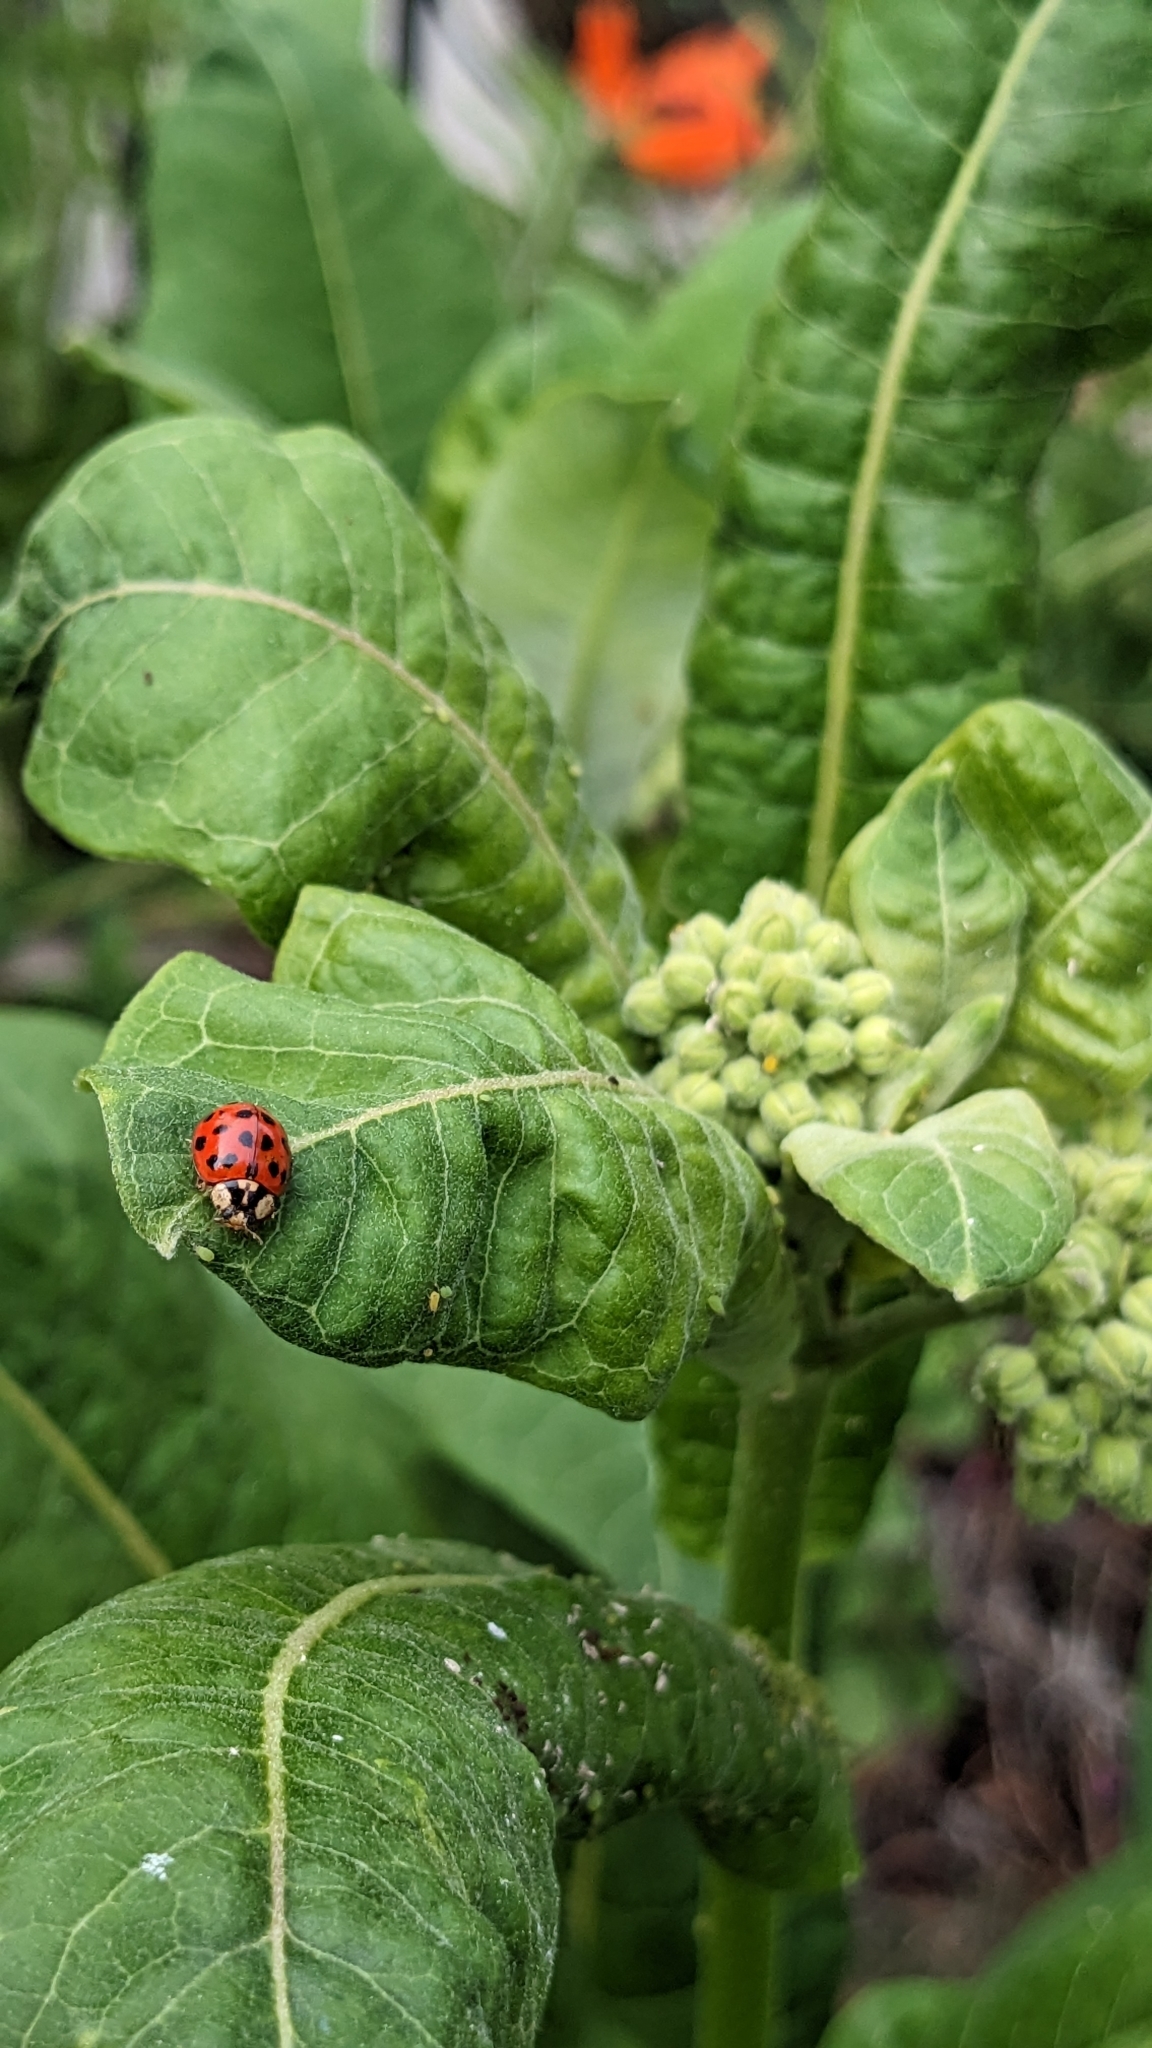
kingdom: Animalia
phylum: Arthropoda
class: Insecta
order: Coleoptera
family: Coccinellidae
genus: Harmonia
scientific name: Harmonia axyridis
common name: Harlequin ladybird
